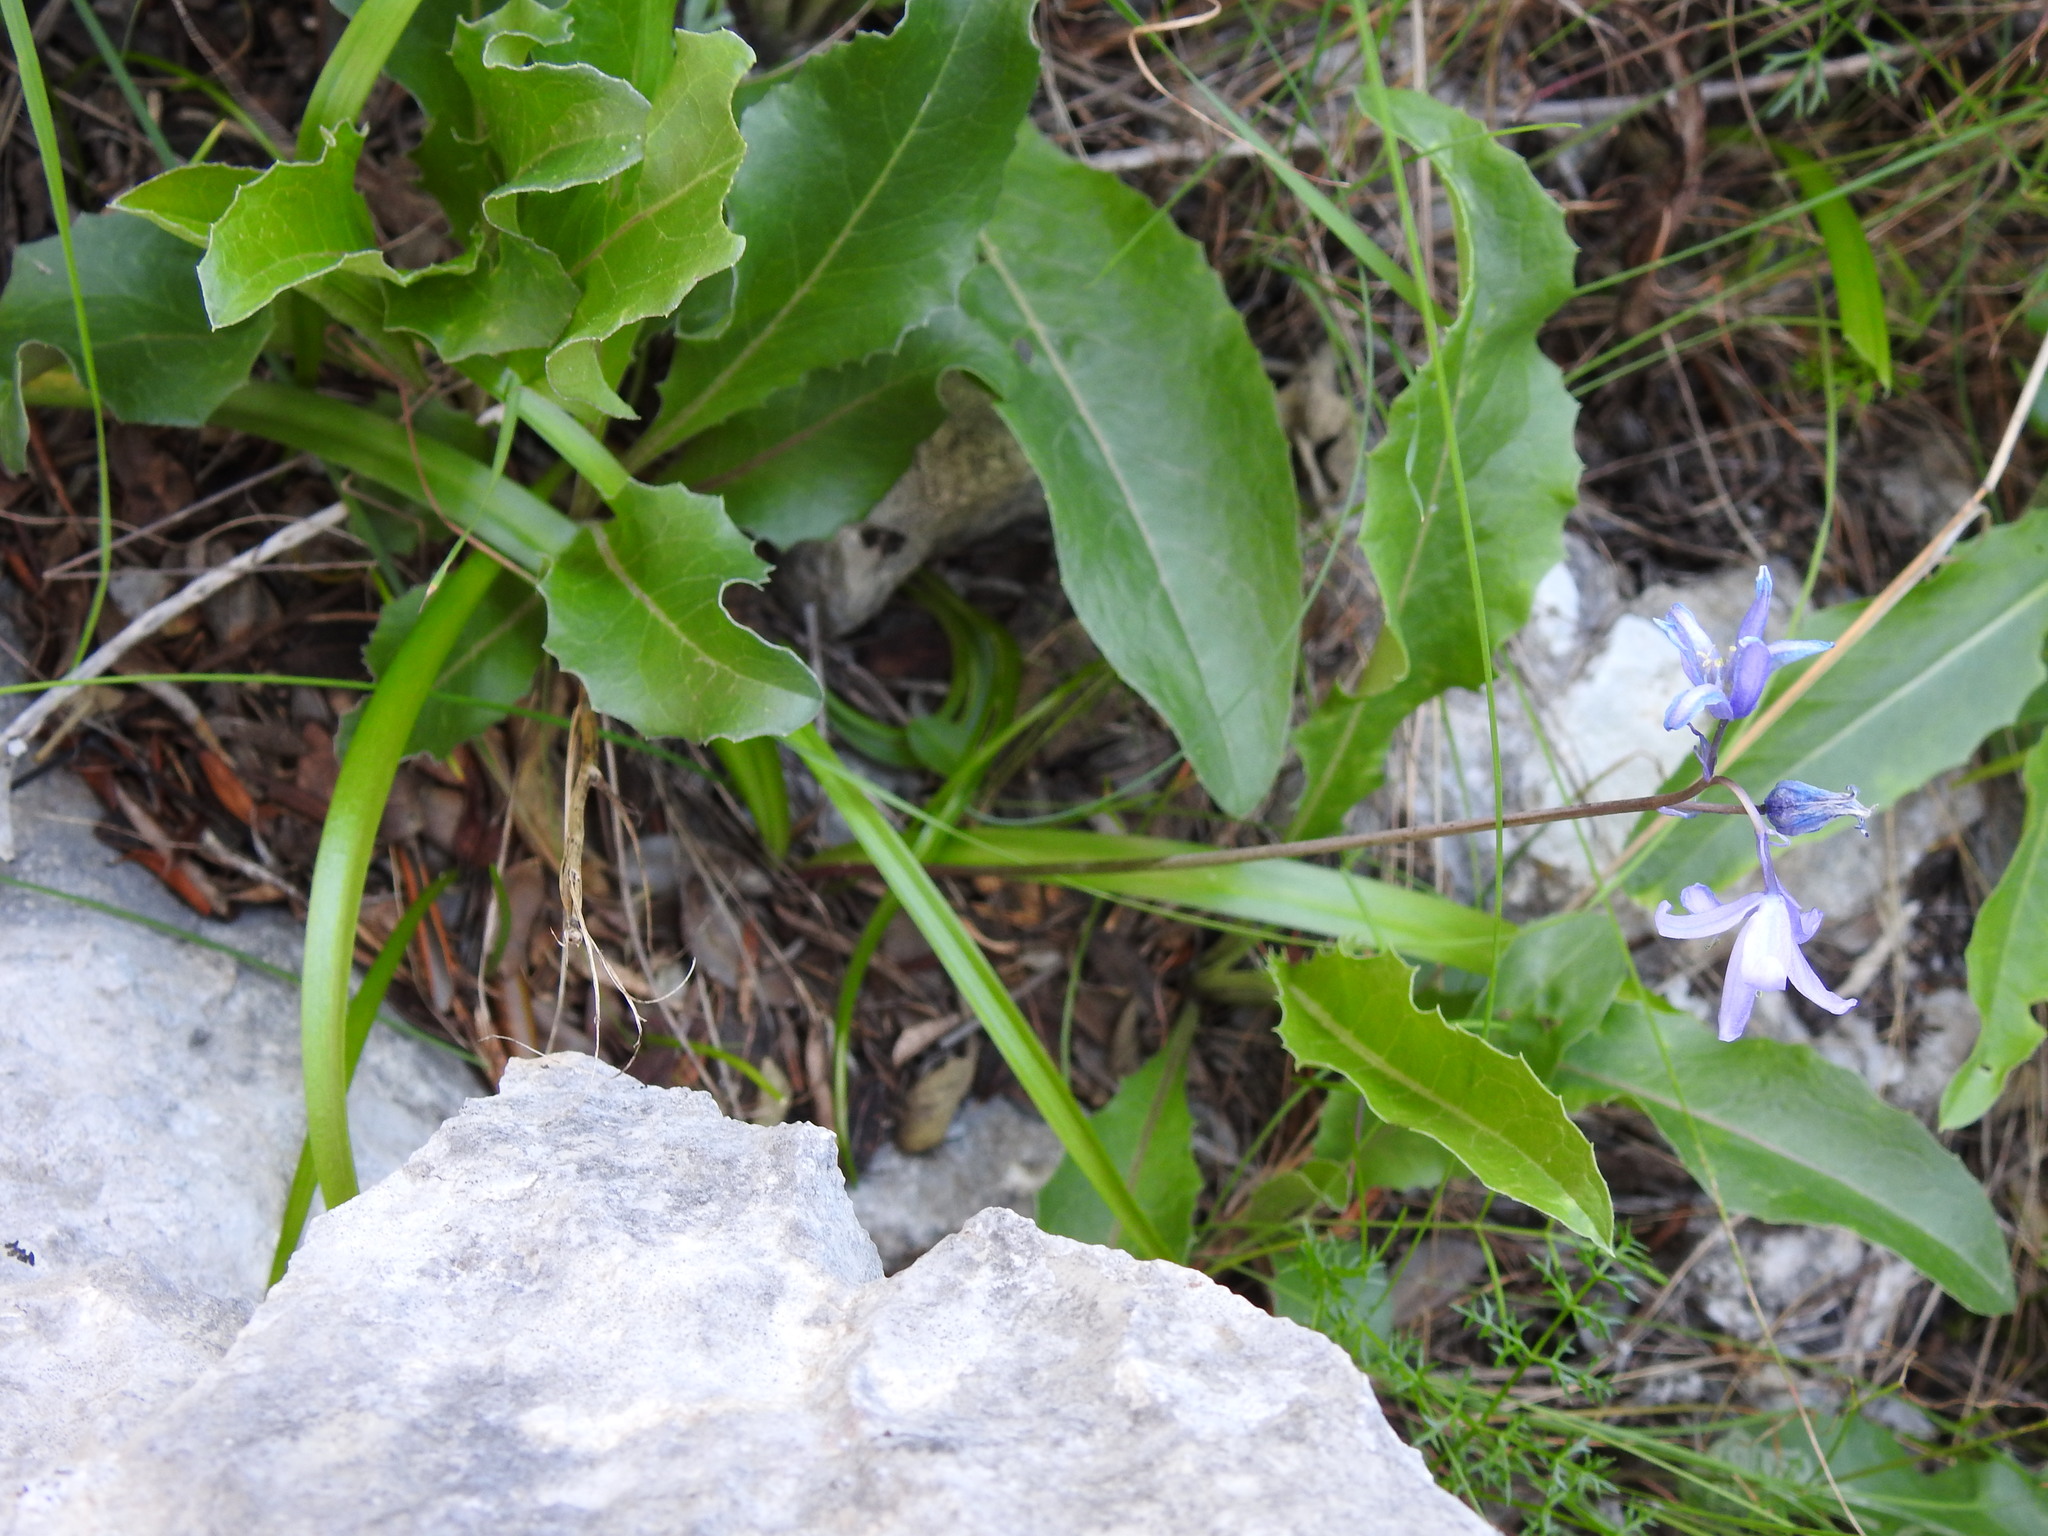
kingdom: Plantae
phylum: Tracheophyta
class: Liliopsida
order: Asparagales
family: Asparagaceae
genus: Hyacinthoides
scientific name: Hyacinthoides hispanica
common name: Spanish bluebell
